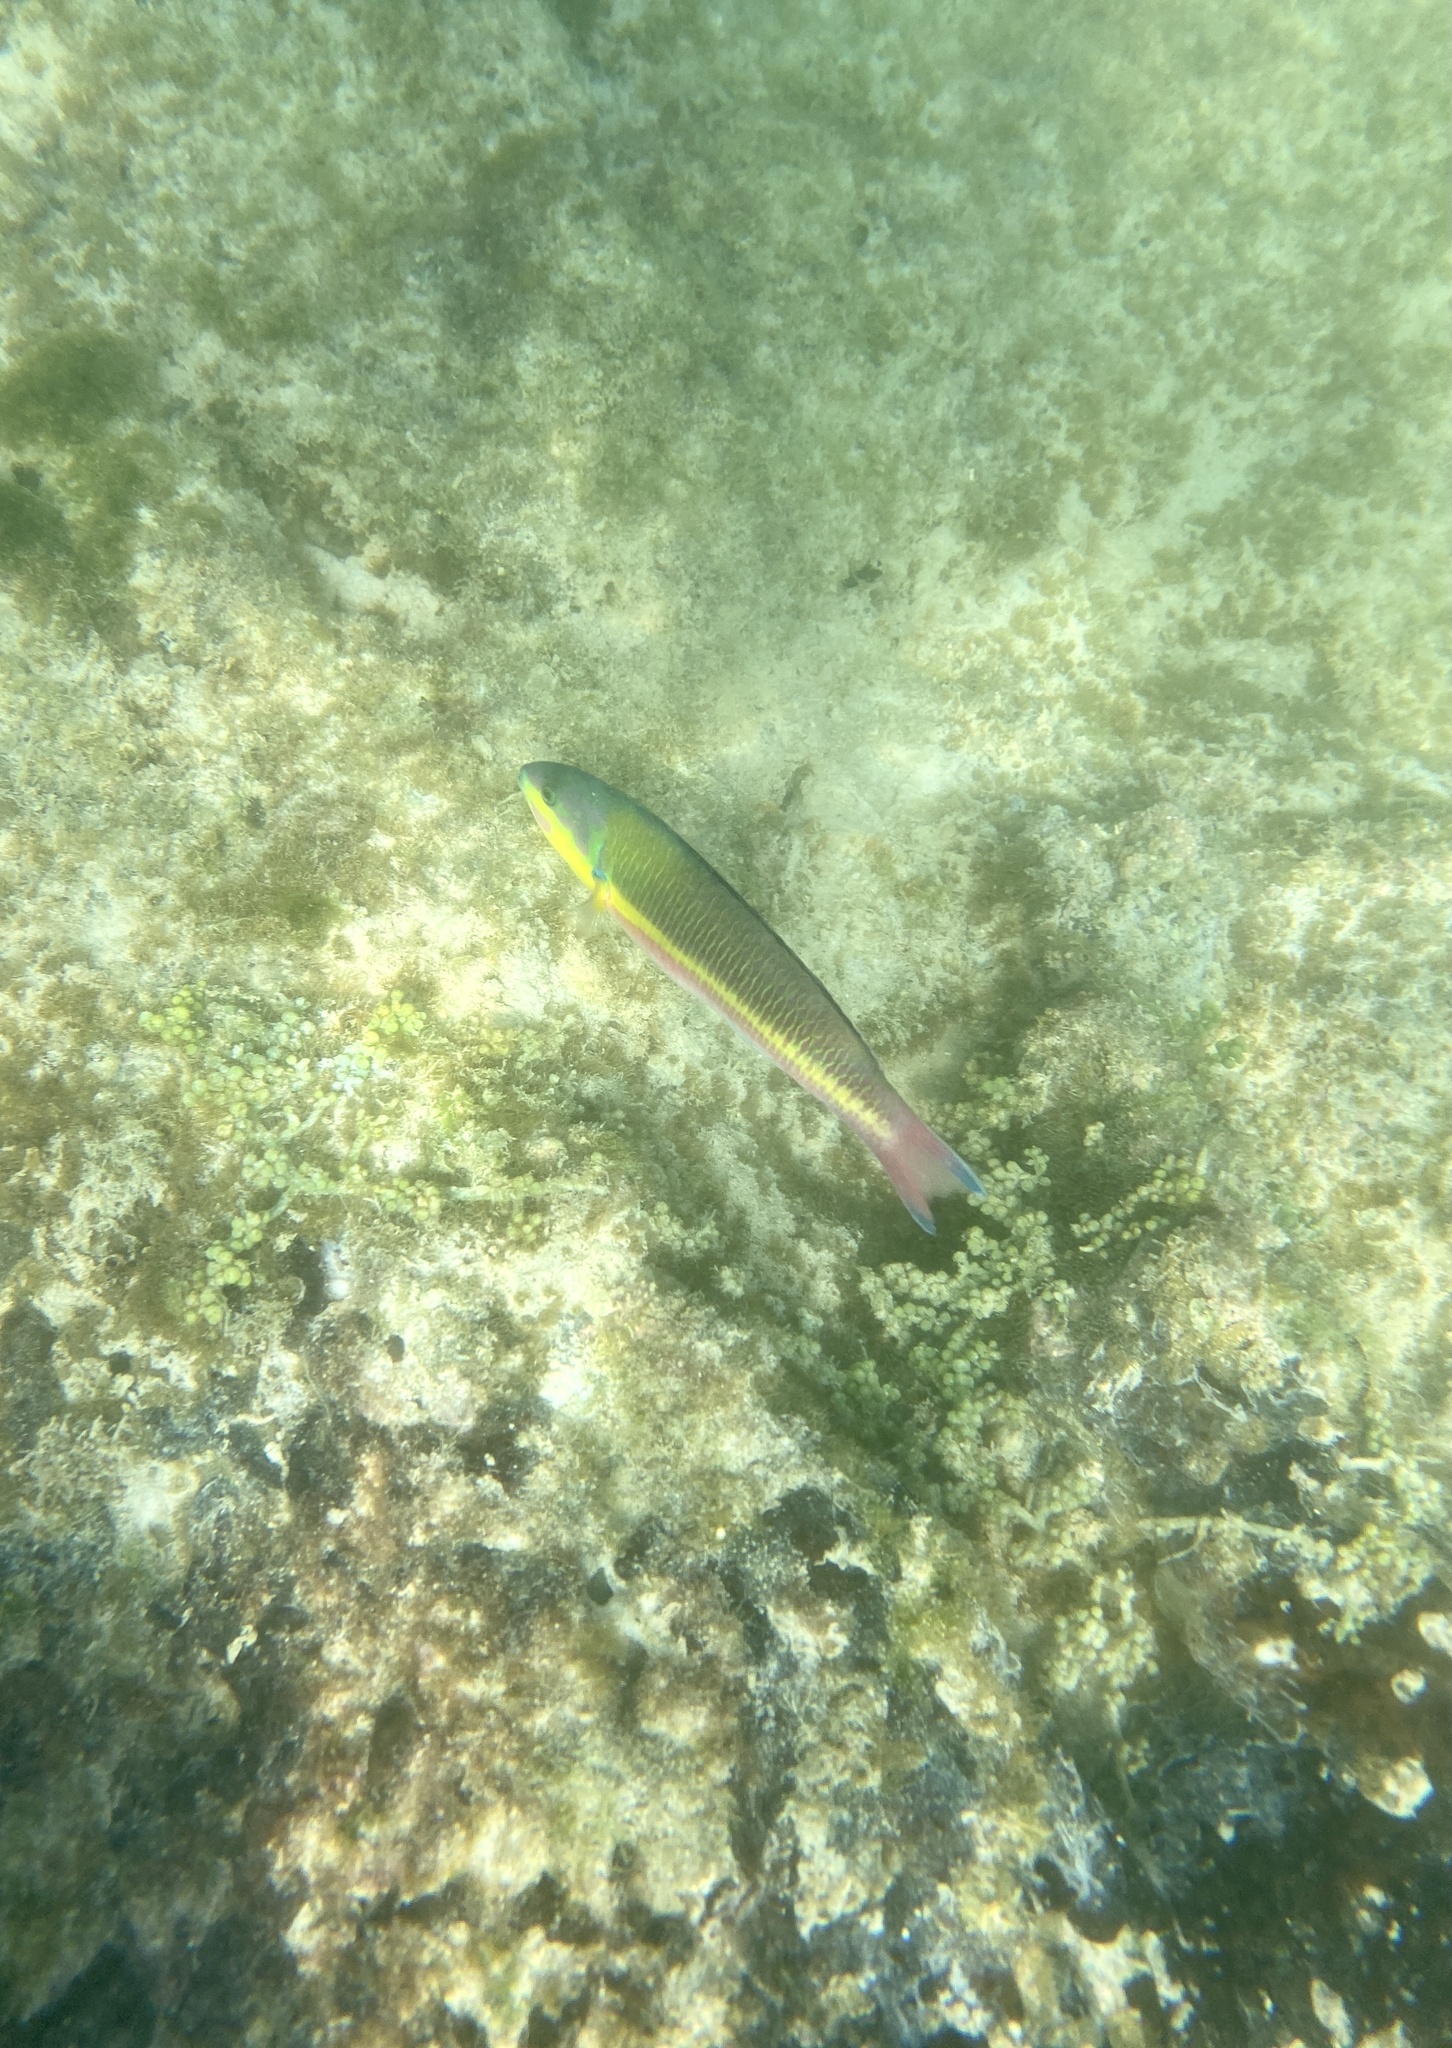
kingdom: Animalia
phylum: Chordata
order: Perciformes
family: Labridae
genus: Thalassoma
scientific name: Thalassoma lucasanum
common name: Cortez rainbow wrasse
